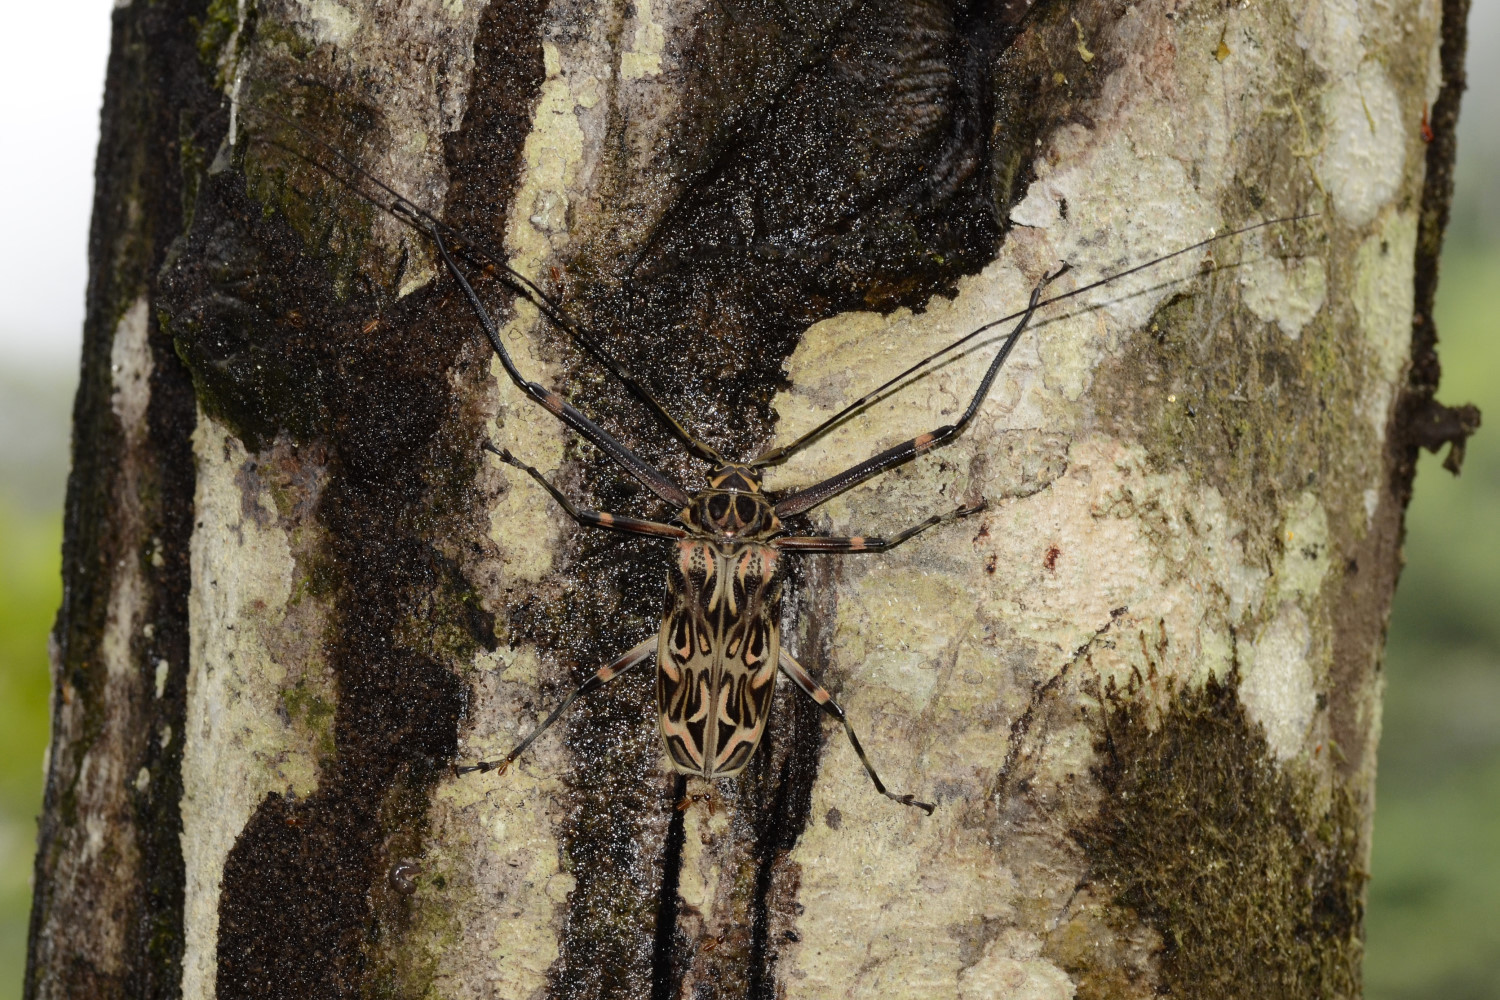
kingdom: Animalia
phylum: Arthropoda
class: Insecta
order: Coleoptera
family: Cerambycidae
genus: Acrocinus
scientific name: Acrocinus longimanus
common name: Arlequin
